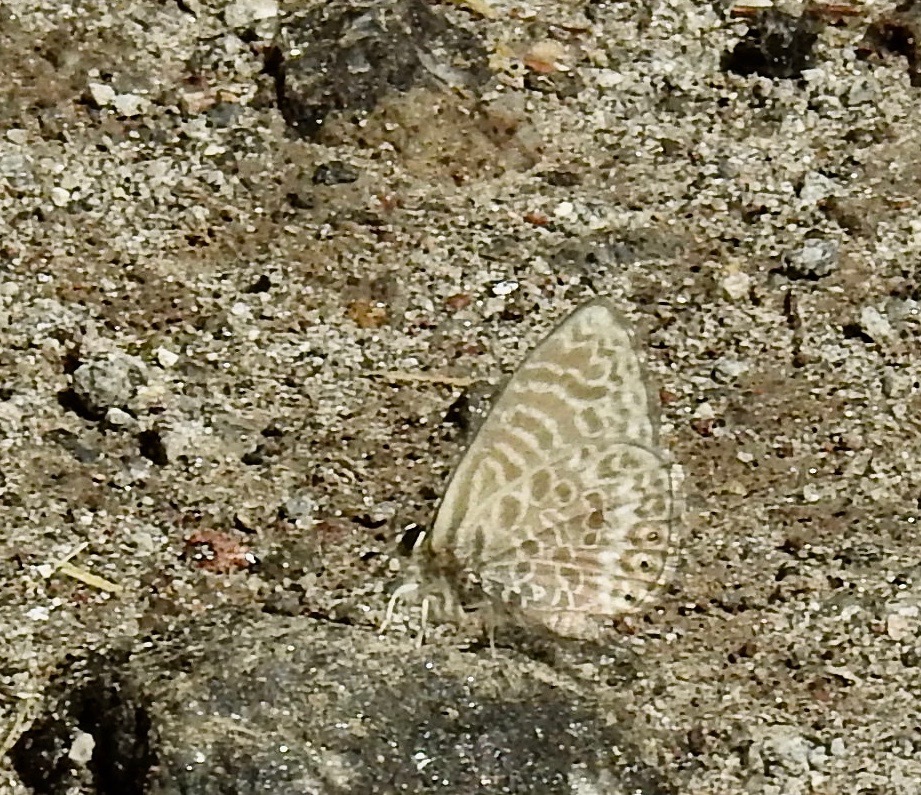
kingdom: Animalia
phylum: Arthropoda
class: Insecta
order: Lepidoptera
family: Lycaenidae
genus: Leptotes
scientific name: Leptotes
